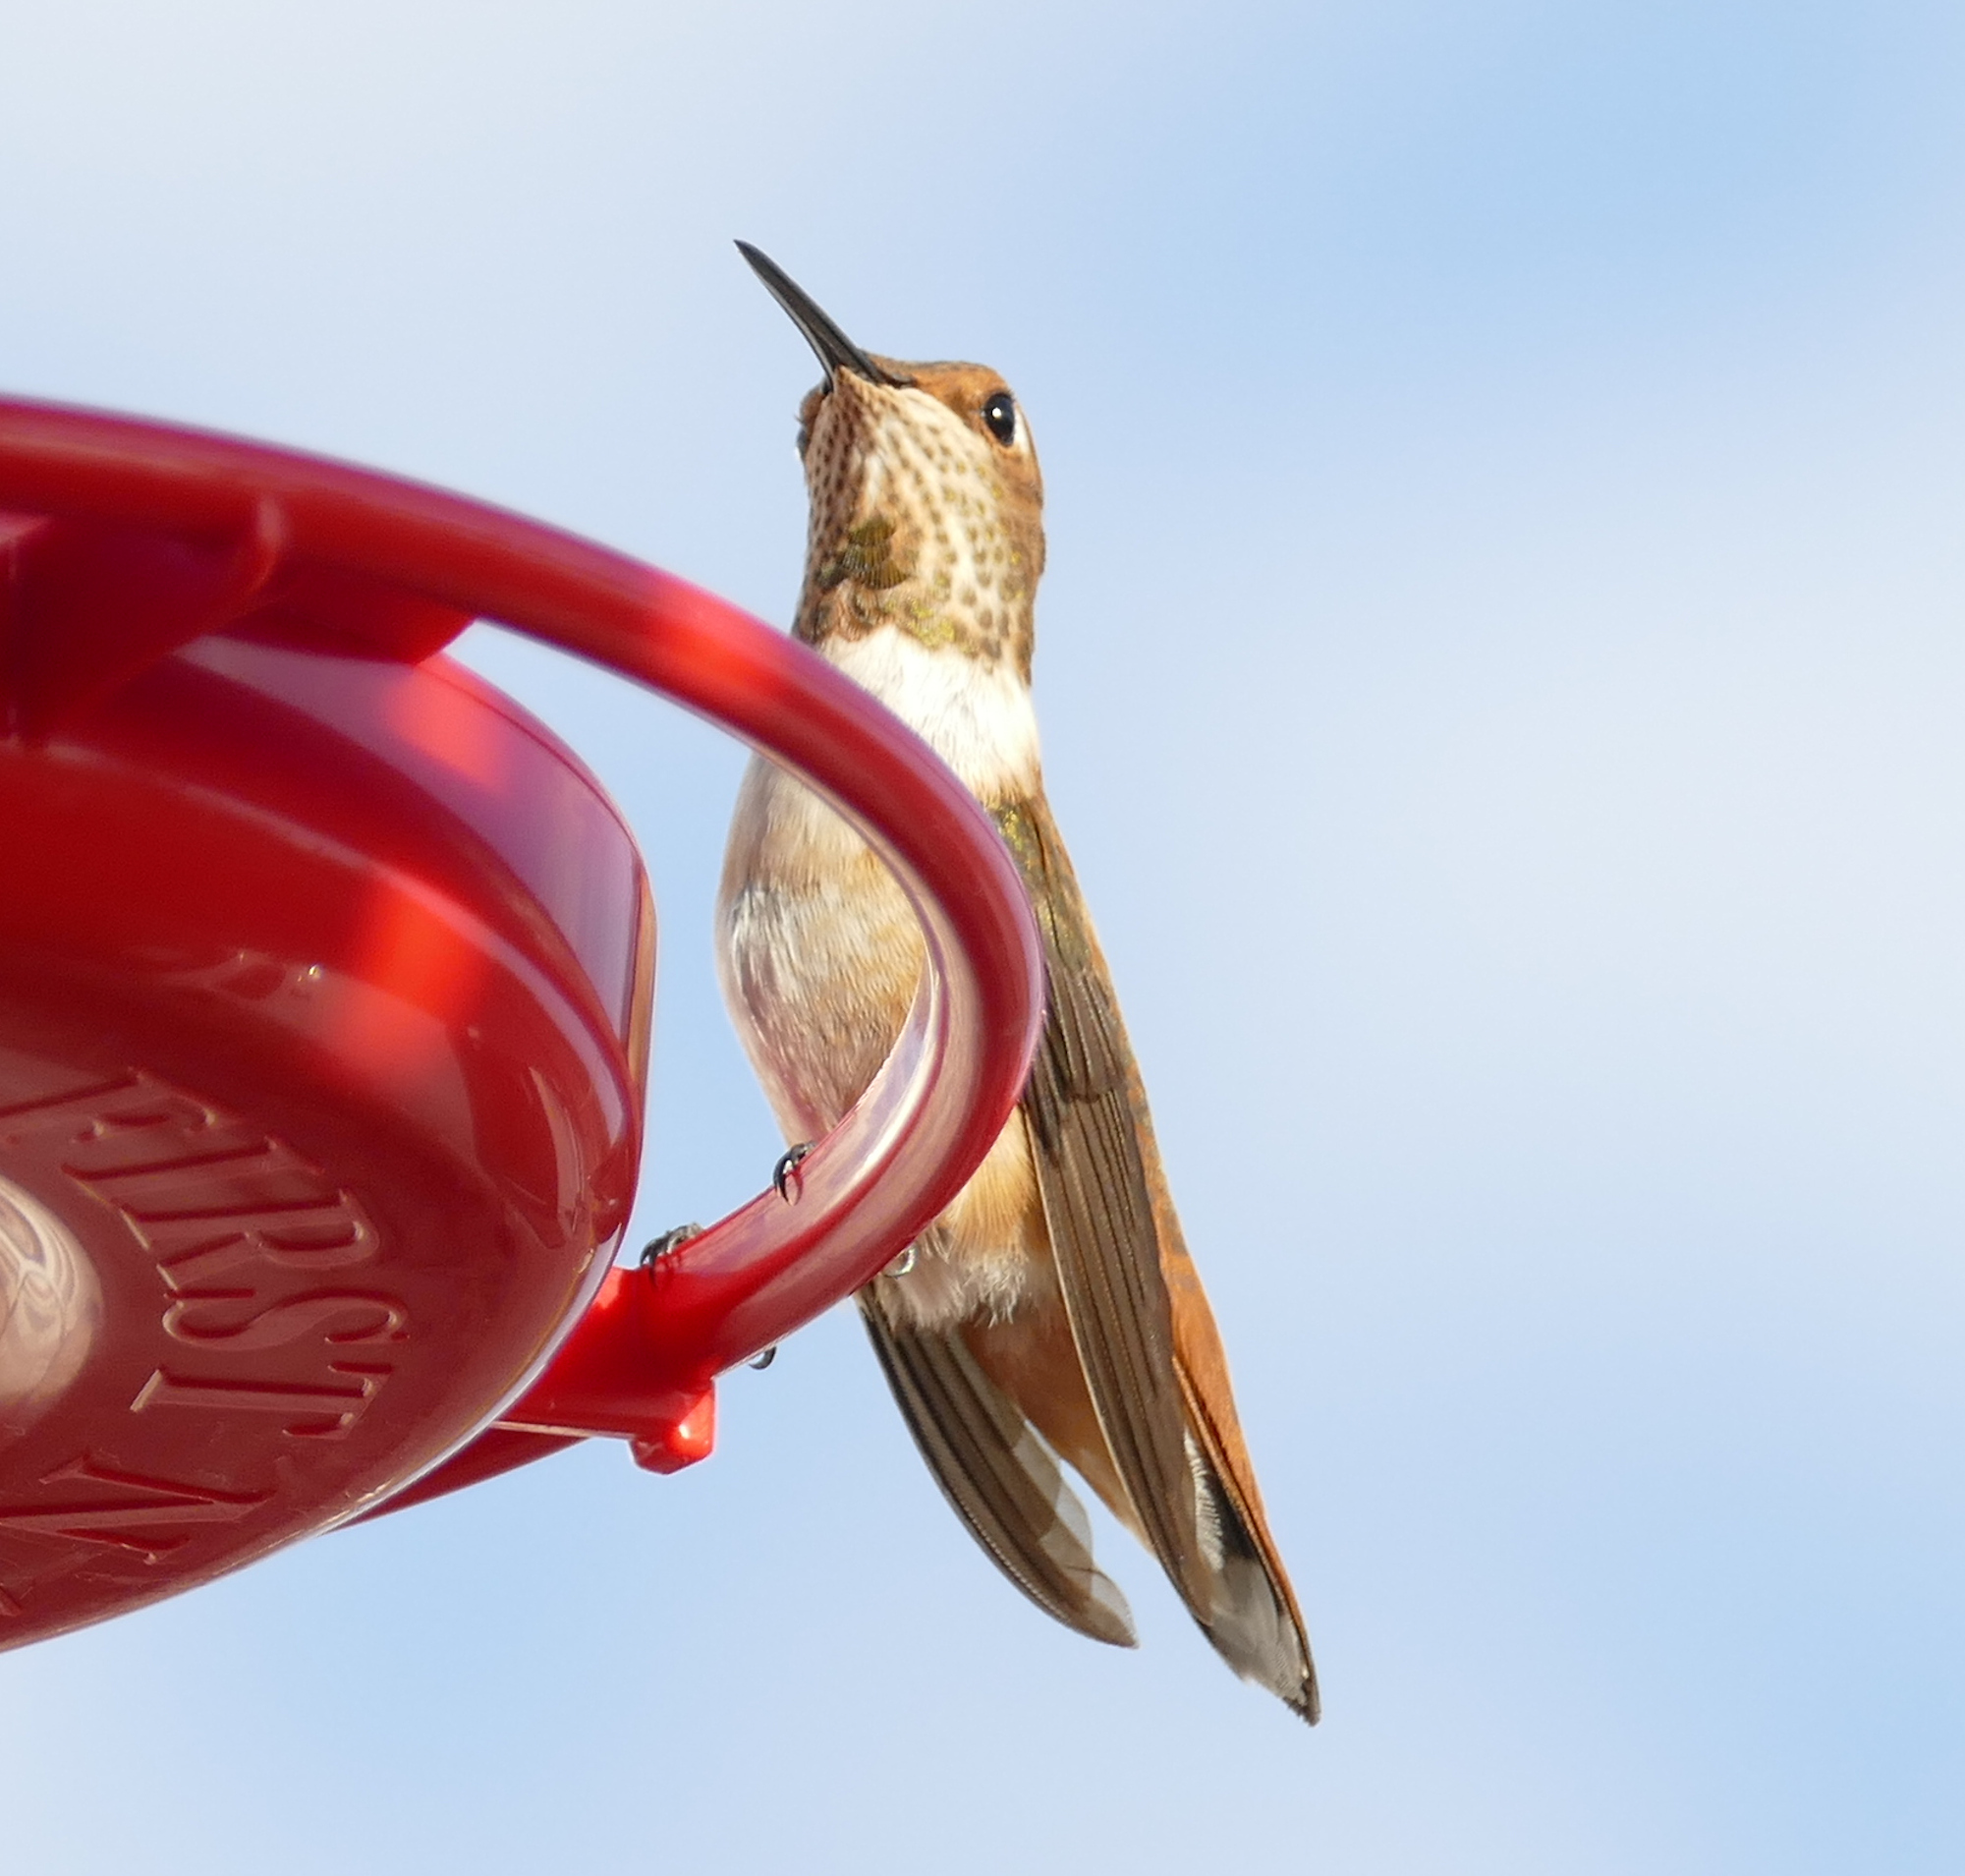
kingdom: Animalia
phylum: Chordata
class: Aves
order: Apodiformes
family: Trochilidae
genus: Selasphorus
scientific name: Selasphorus rufus
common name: Rufous hummingbird
